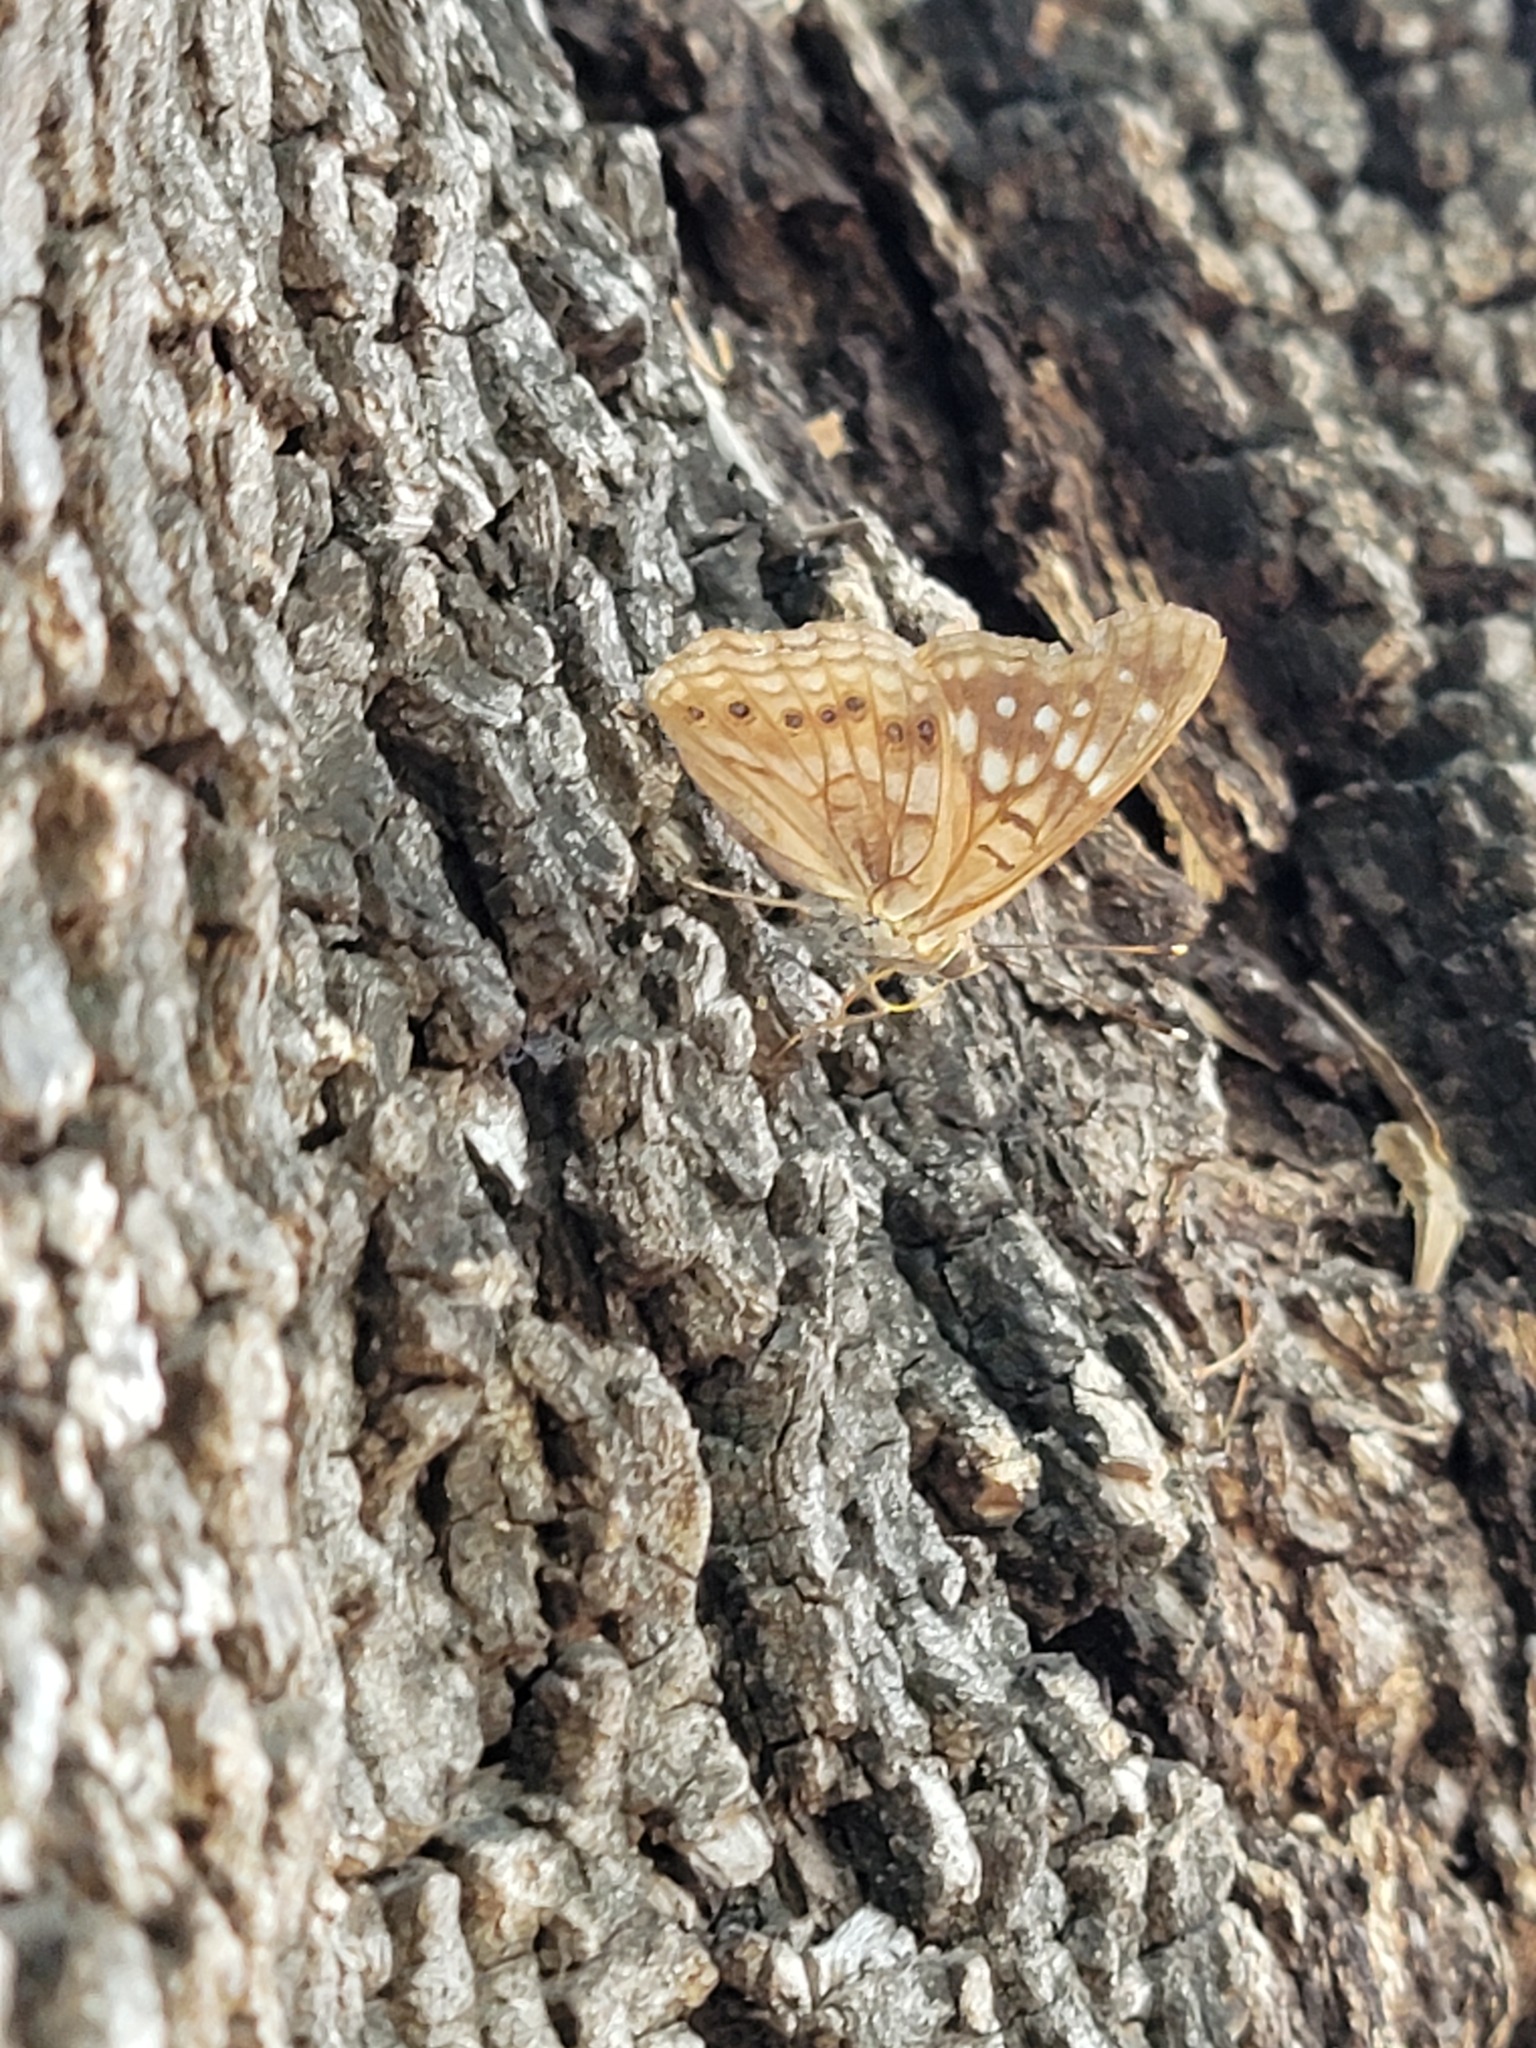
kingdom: Animalia
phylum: Arthropoda
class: Insecta
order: Lepidoptera
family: Nymphalidae
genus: Asterocampa
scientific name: Asterocampa clyton
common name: Tawny emperor
